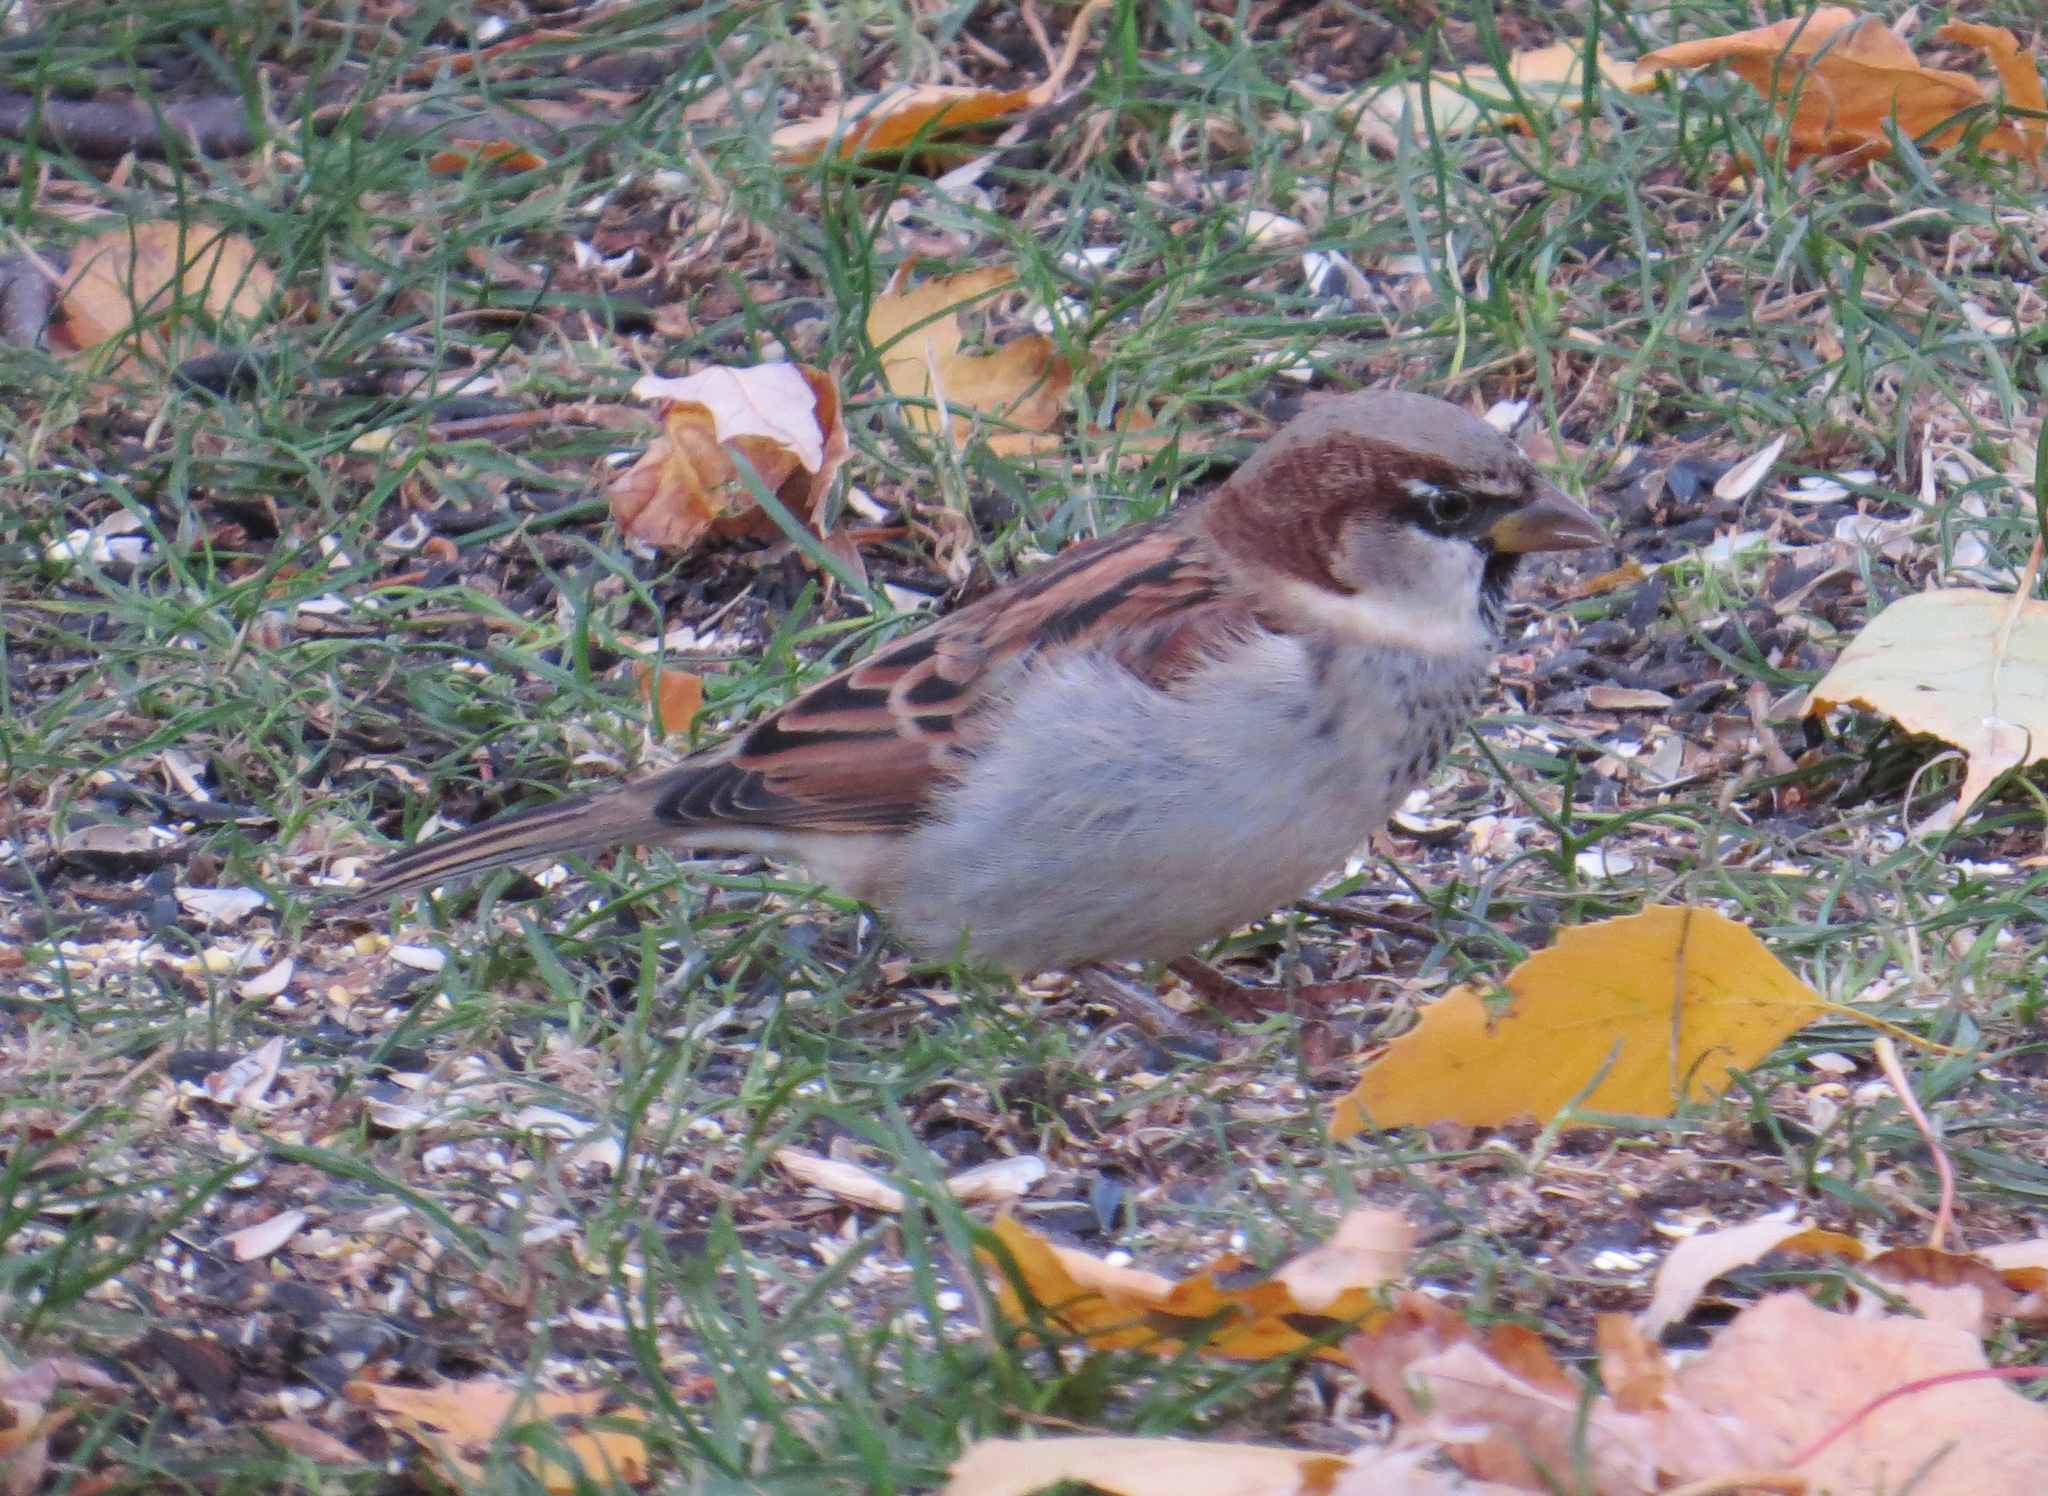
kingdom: Animalia
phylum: Chordata
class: Aves
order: Passeriformes
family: Passeridae
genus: Passer
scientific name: Passer domesticus
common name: House sparrow
